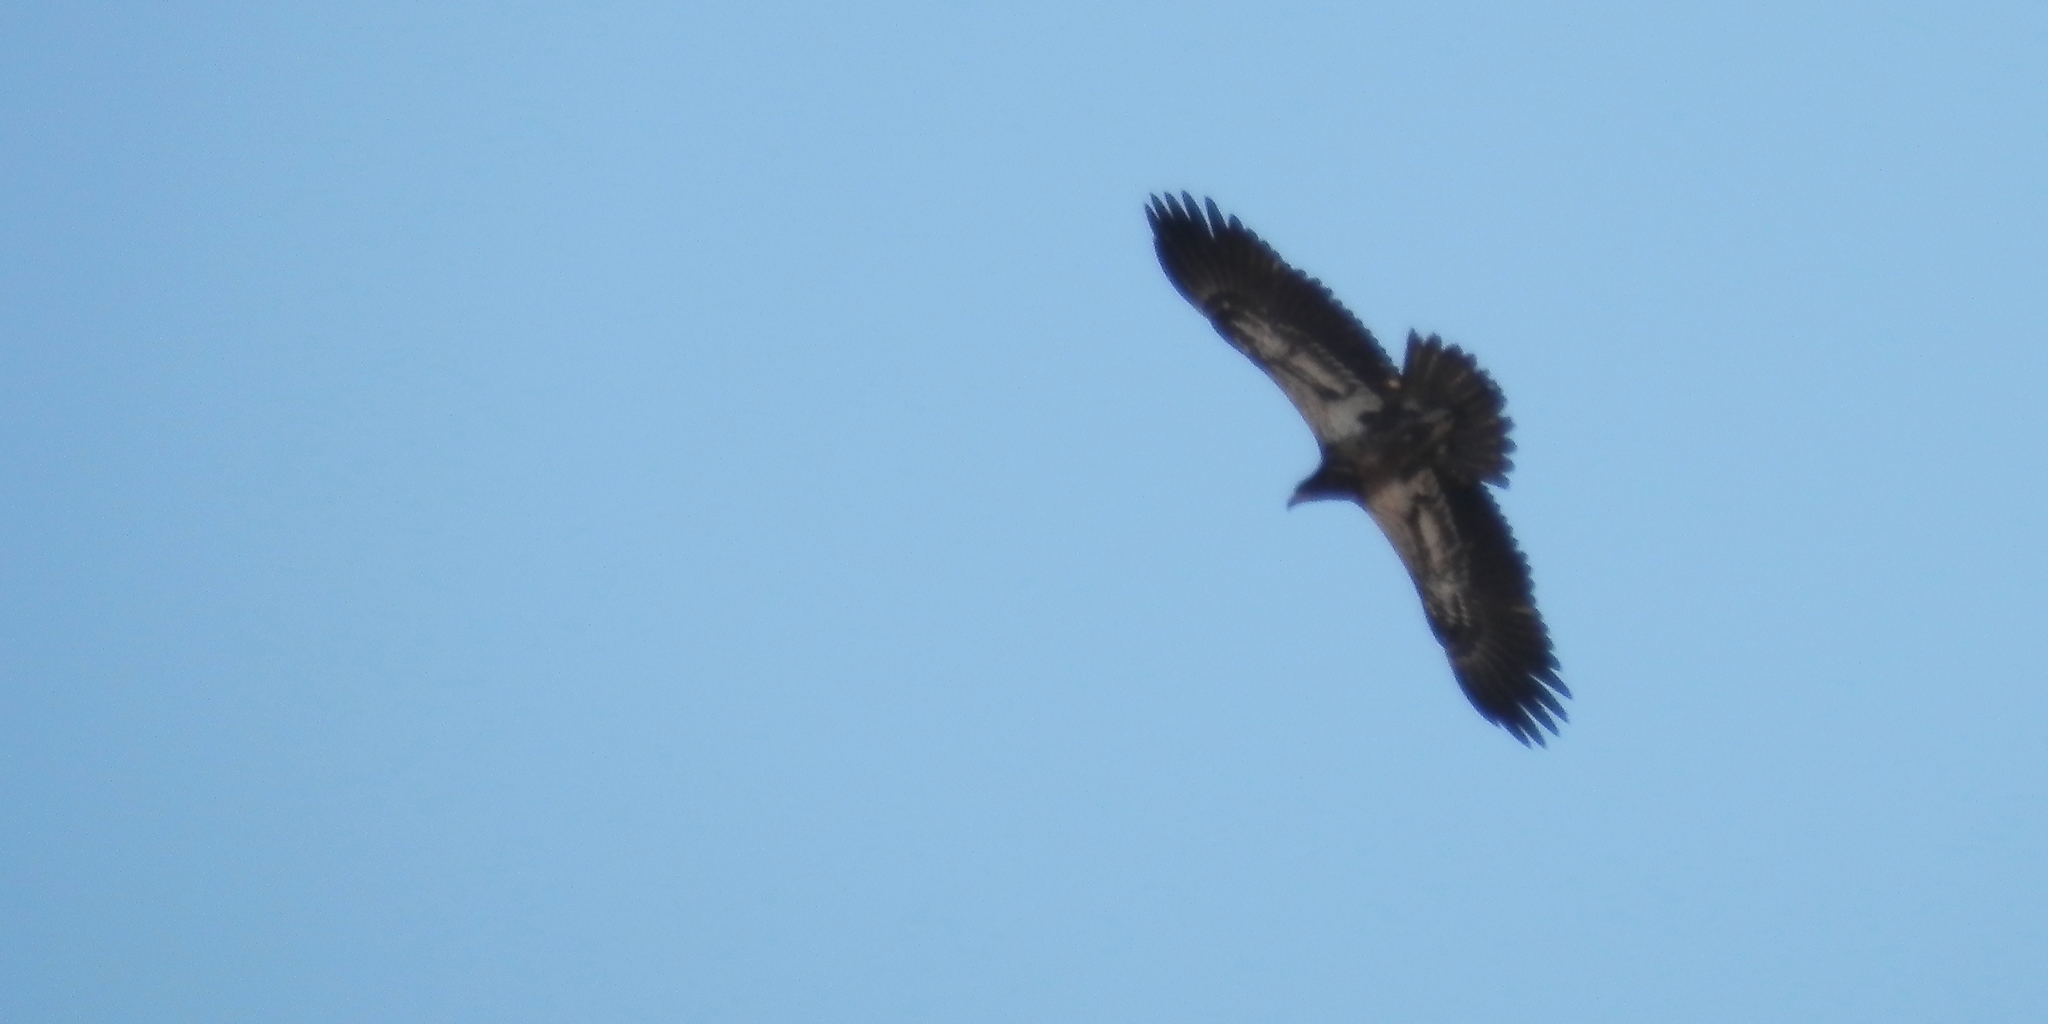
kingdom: Animalia
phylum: Chordata
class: Aves
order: Accipitriformes
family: Accipitridae
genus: Haliaeetus
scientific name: Haliaeetus leucocephalus
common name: Bald eagle
